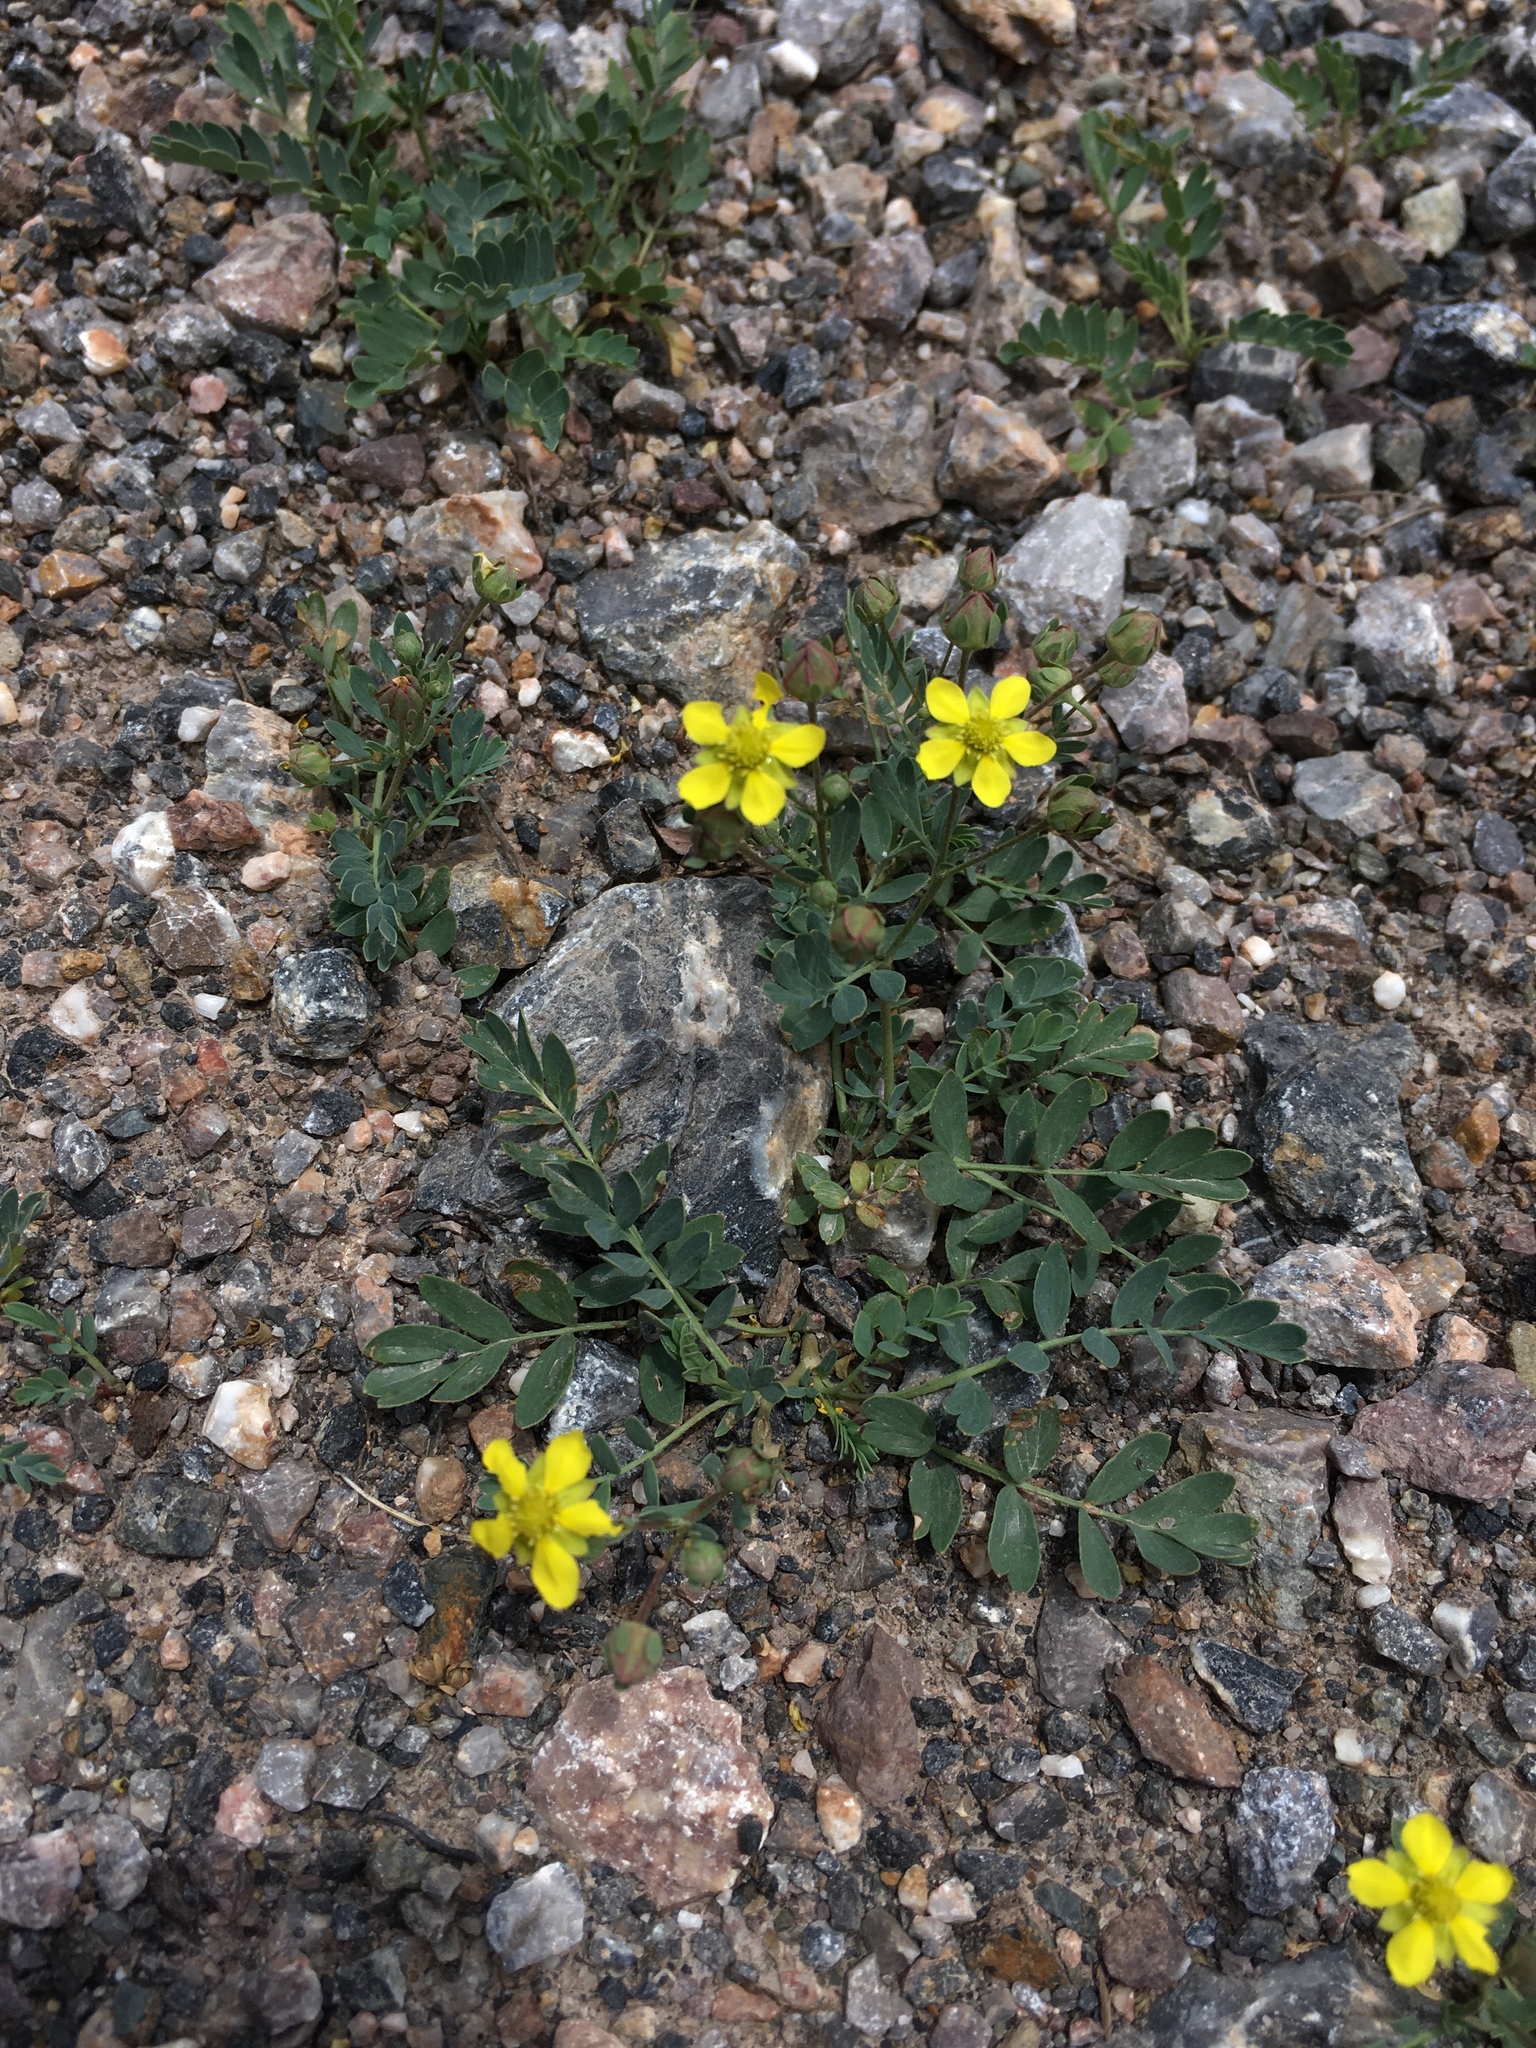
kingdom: Plantae
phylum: Tracheophyta
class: Magnoliopsida
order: Rosales
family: Rosaceae
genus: Sibbaldianthe
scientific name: Sibbaldianthe bifurca
